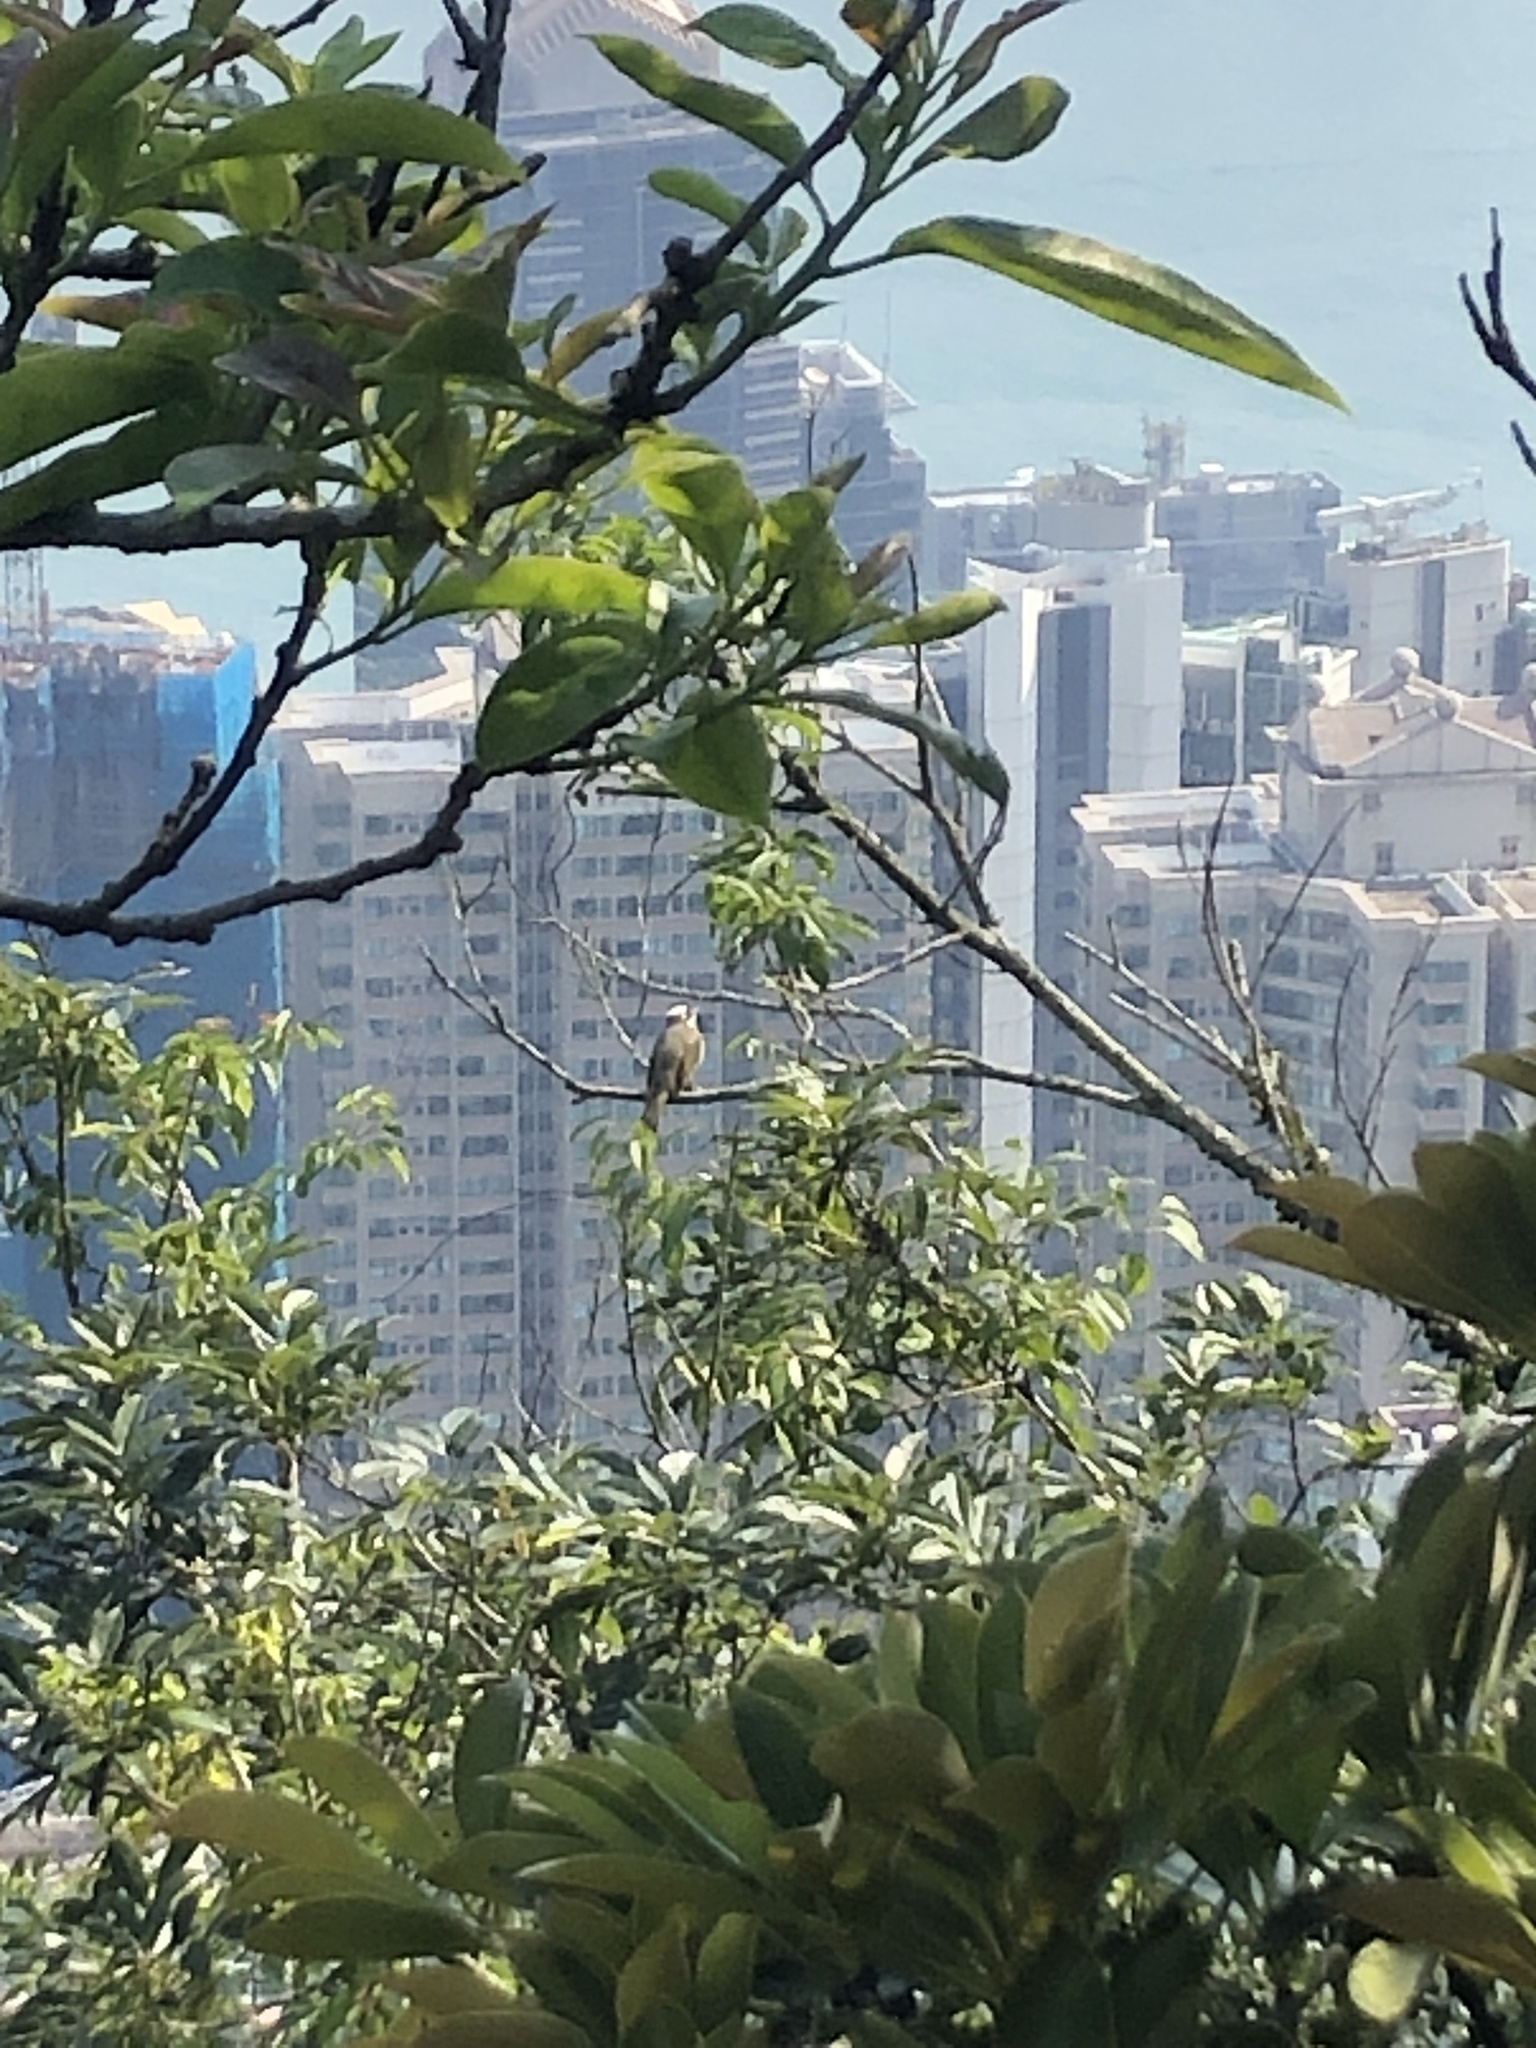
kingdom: Animalia
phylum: Chordata
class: Aves
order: Passeriformes
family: Pycnonotidae
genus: Pycnonotus
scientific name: Pycnonotus sinensis
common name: Light-vented bulbul
